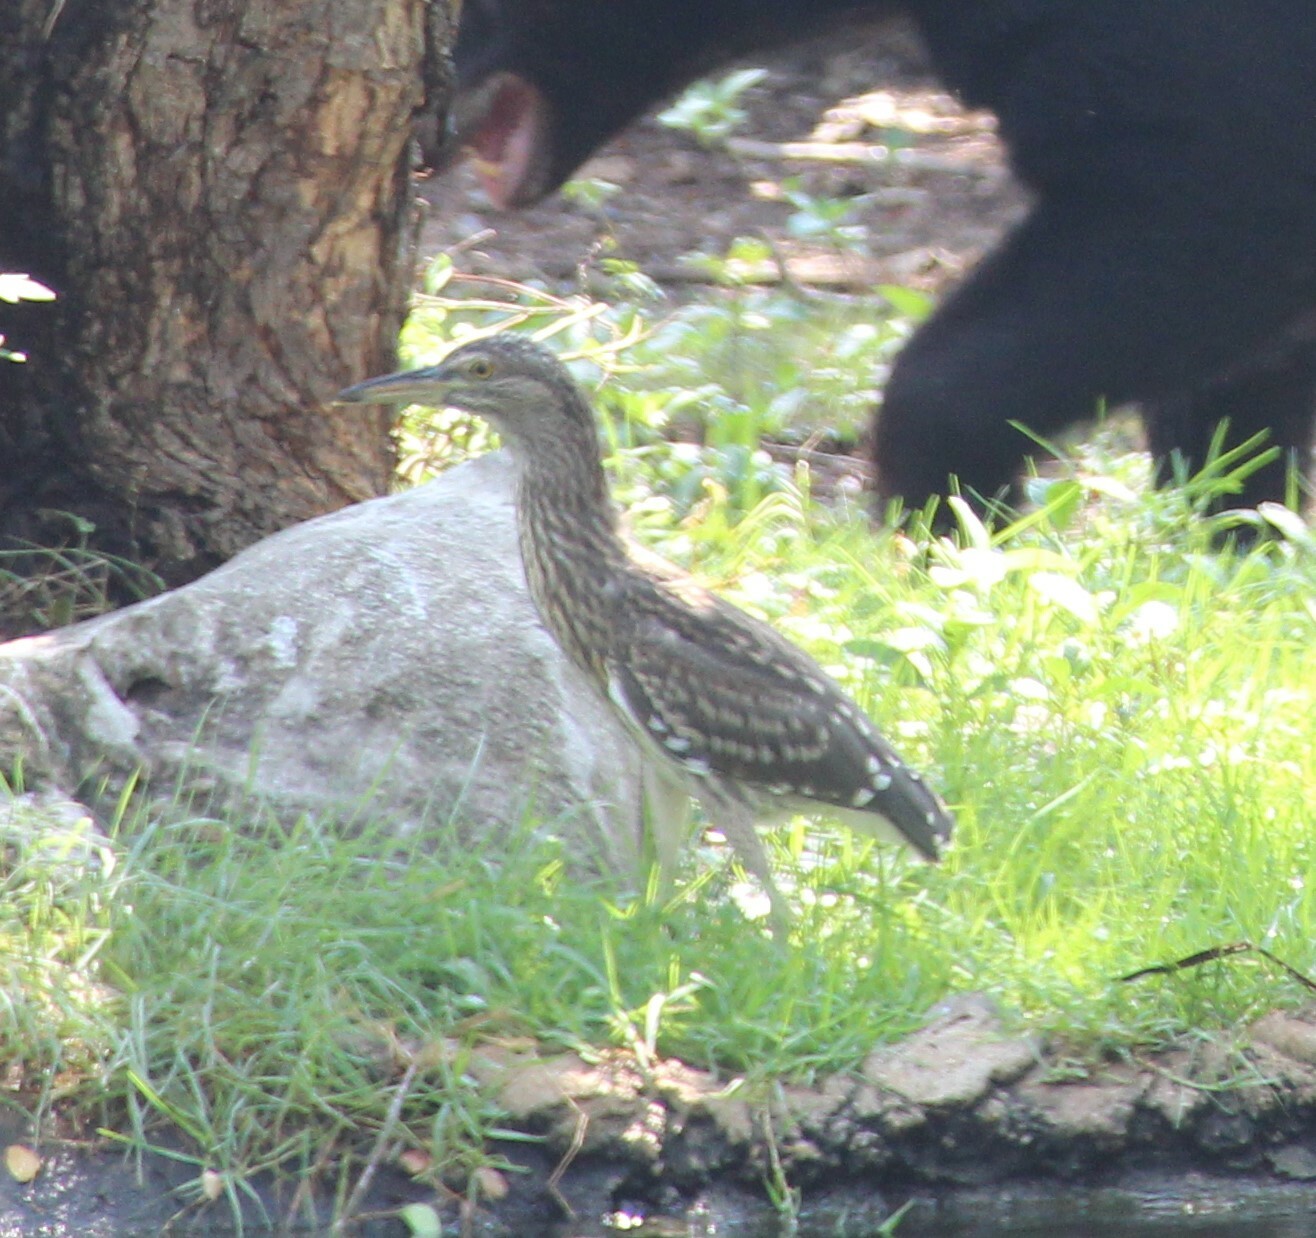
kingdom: Animalia
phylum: Chordata
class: Aves
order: Pelecaniformes
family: Ardeidae
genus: Nycticorax
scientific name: Nycticorax nycticorax
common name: Black-crowned night heron
